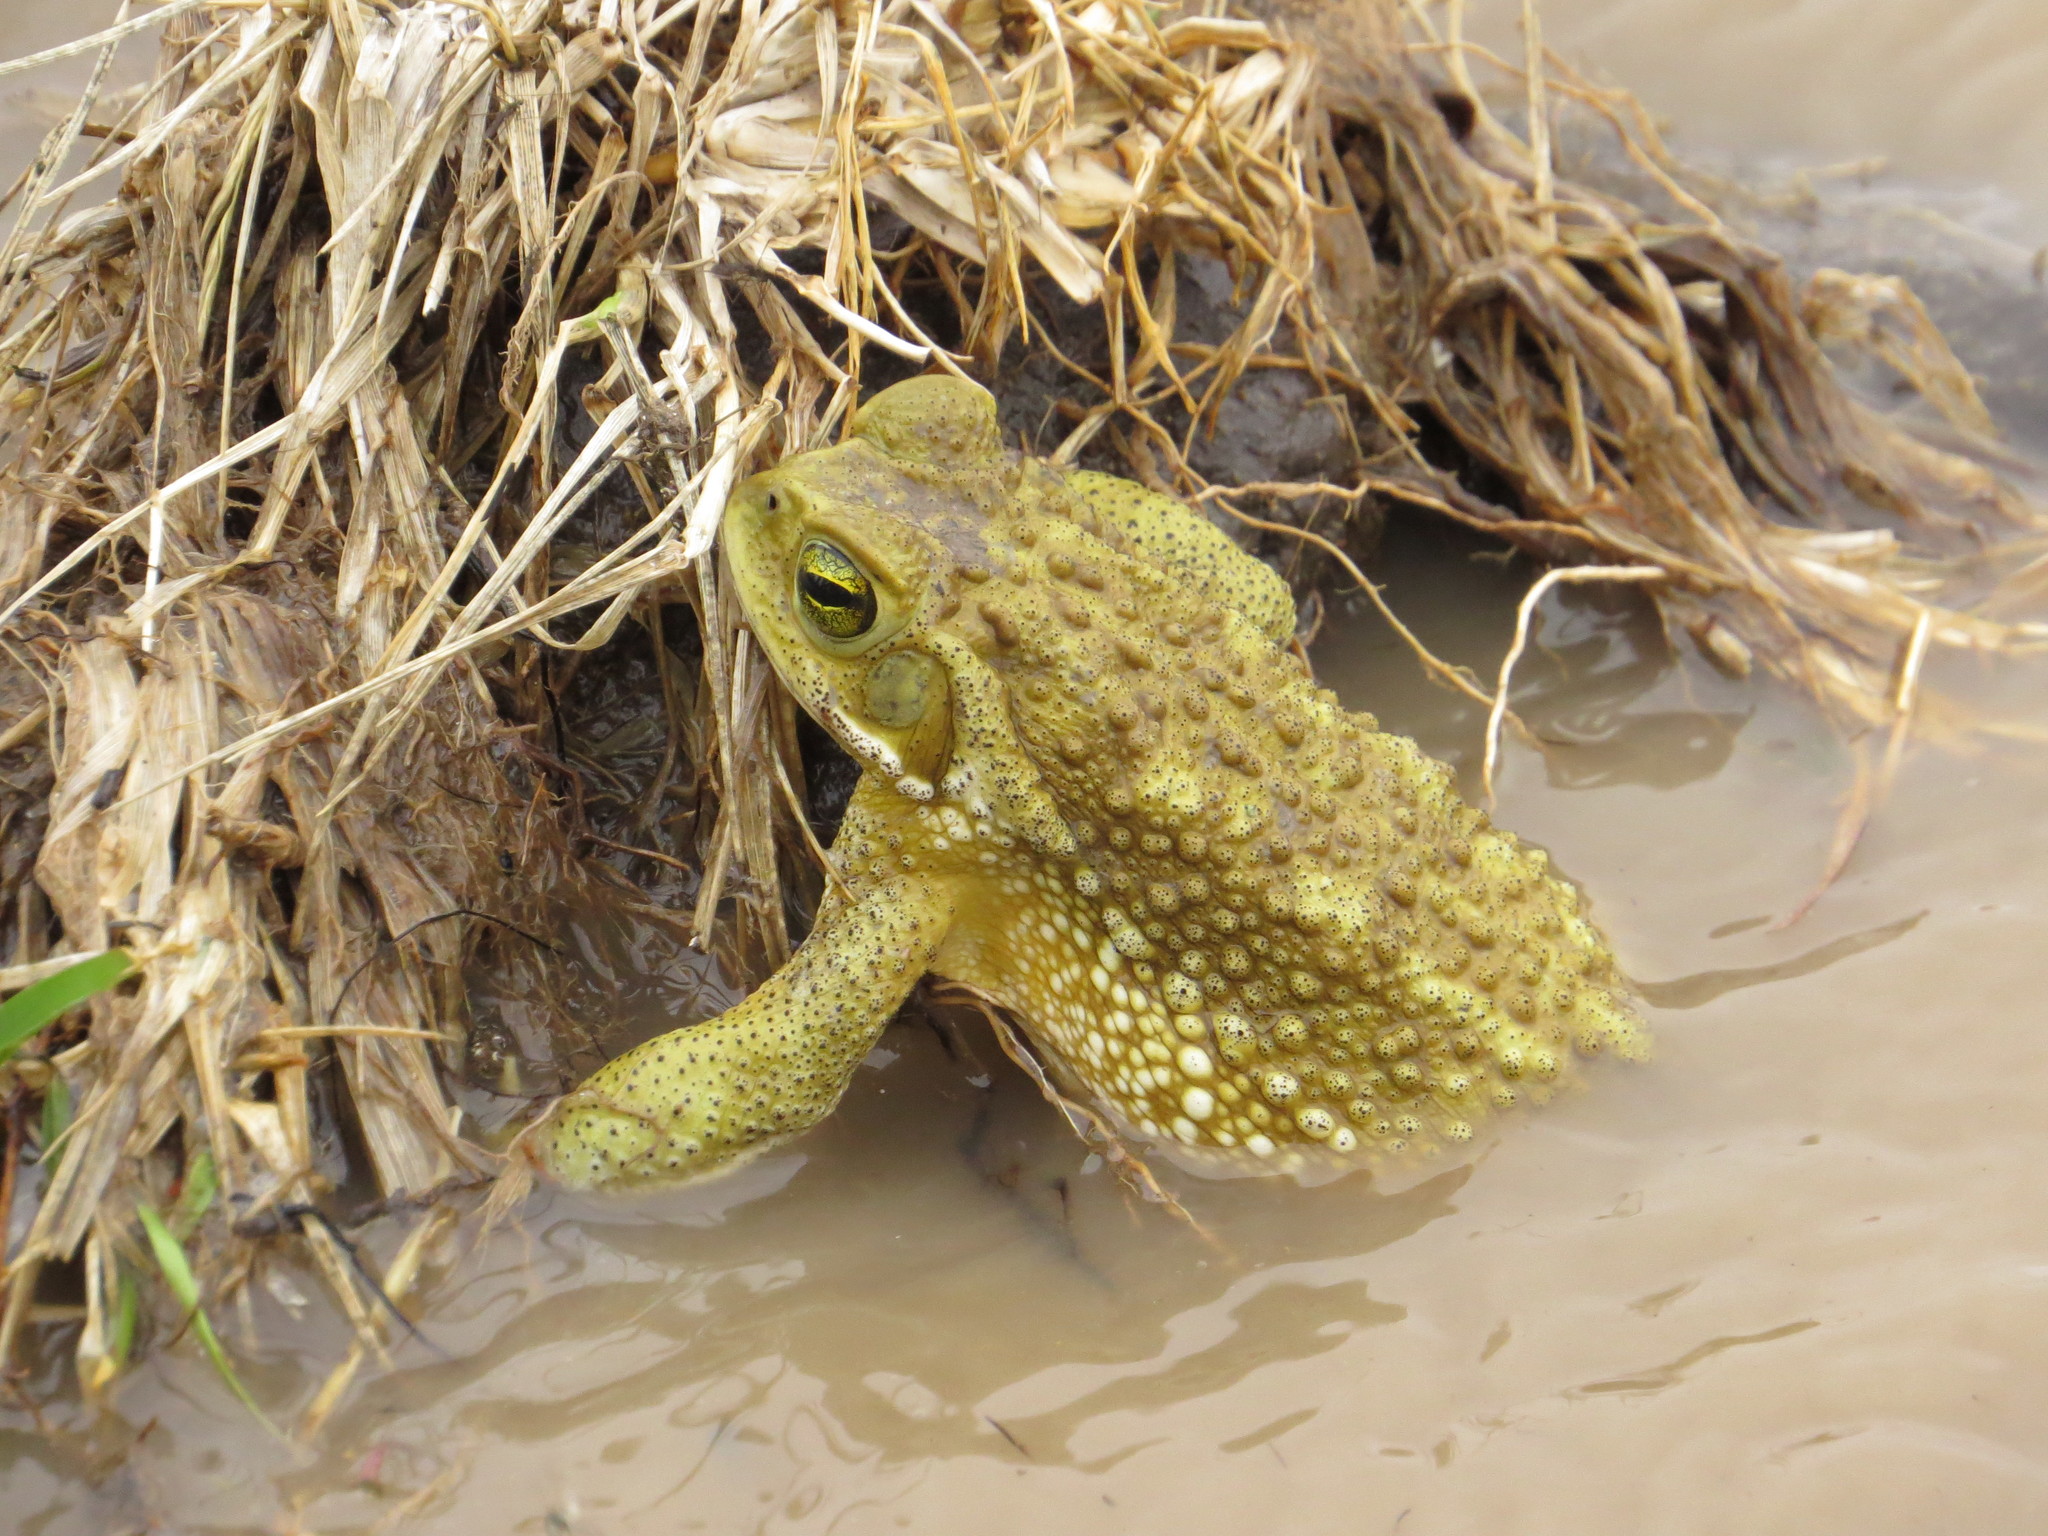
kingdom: Animalia
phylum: Chordata
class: Amphibia
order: Anura
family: Bufonidae
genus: Rhinella
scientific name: Rhinella arenarum
